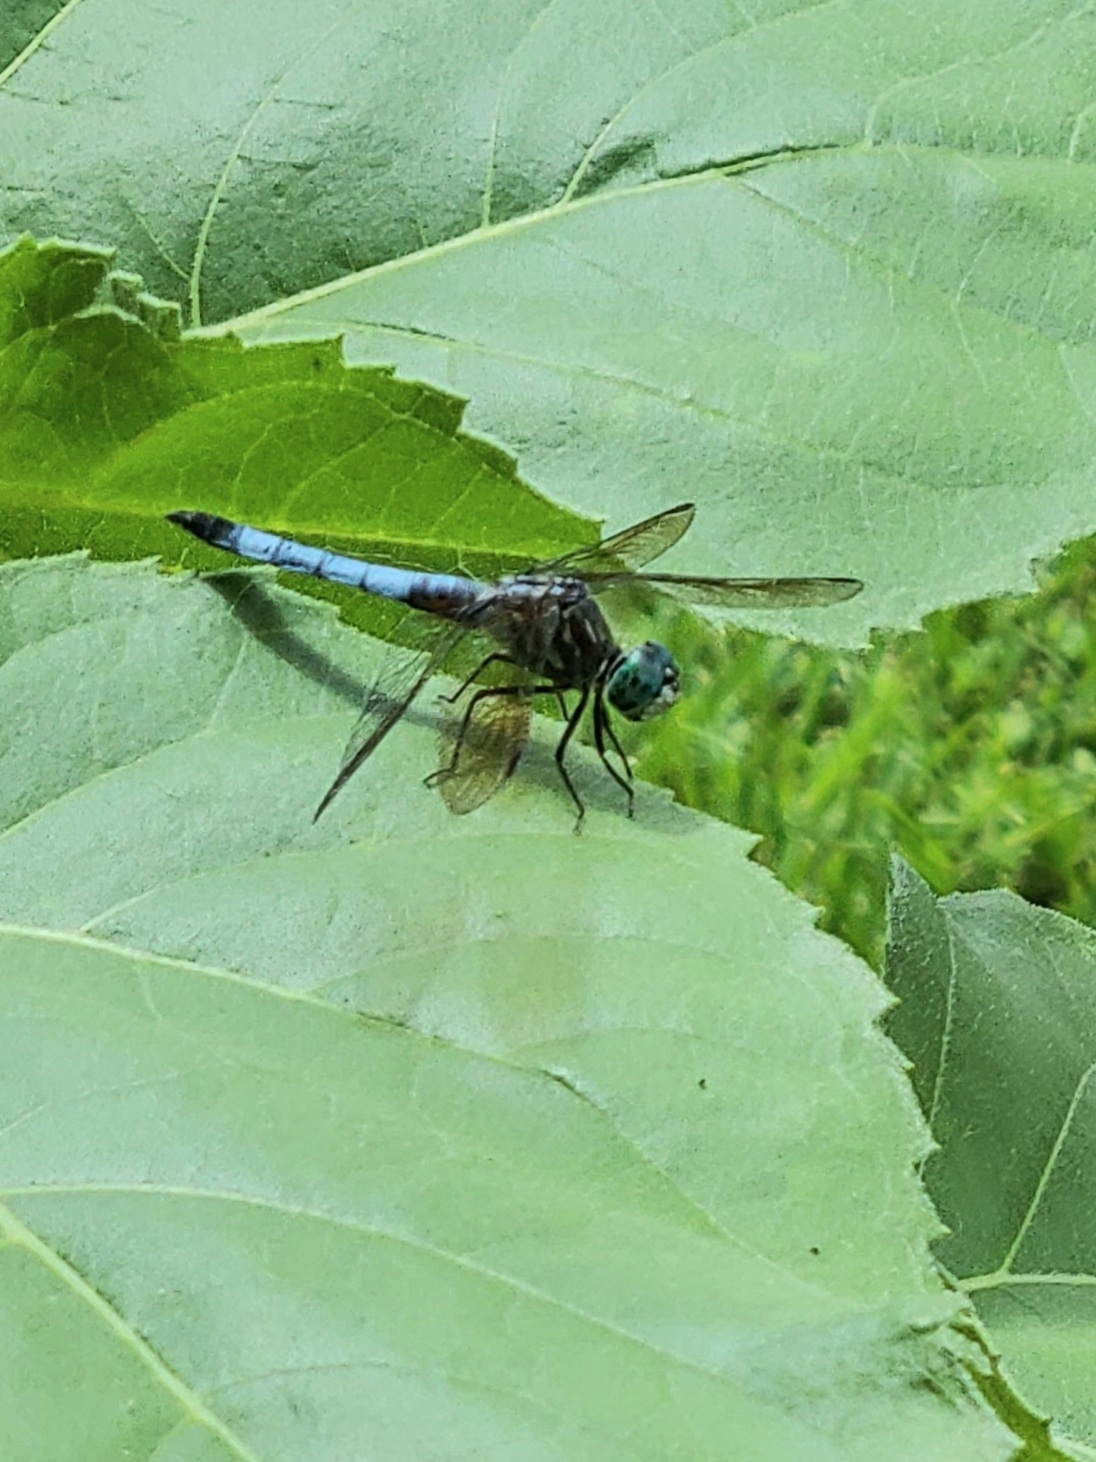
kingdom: Animalia
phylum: Arthropoda
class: Insecta
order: Odonata
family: Libellulidae
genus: Pachydiplax
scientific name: Pachydiplax longipennis
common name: Blue dasher
